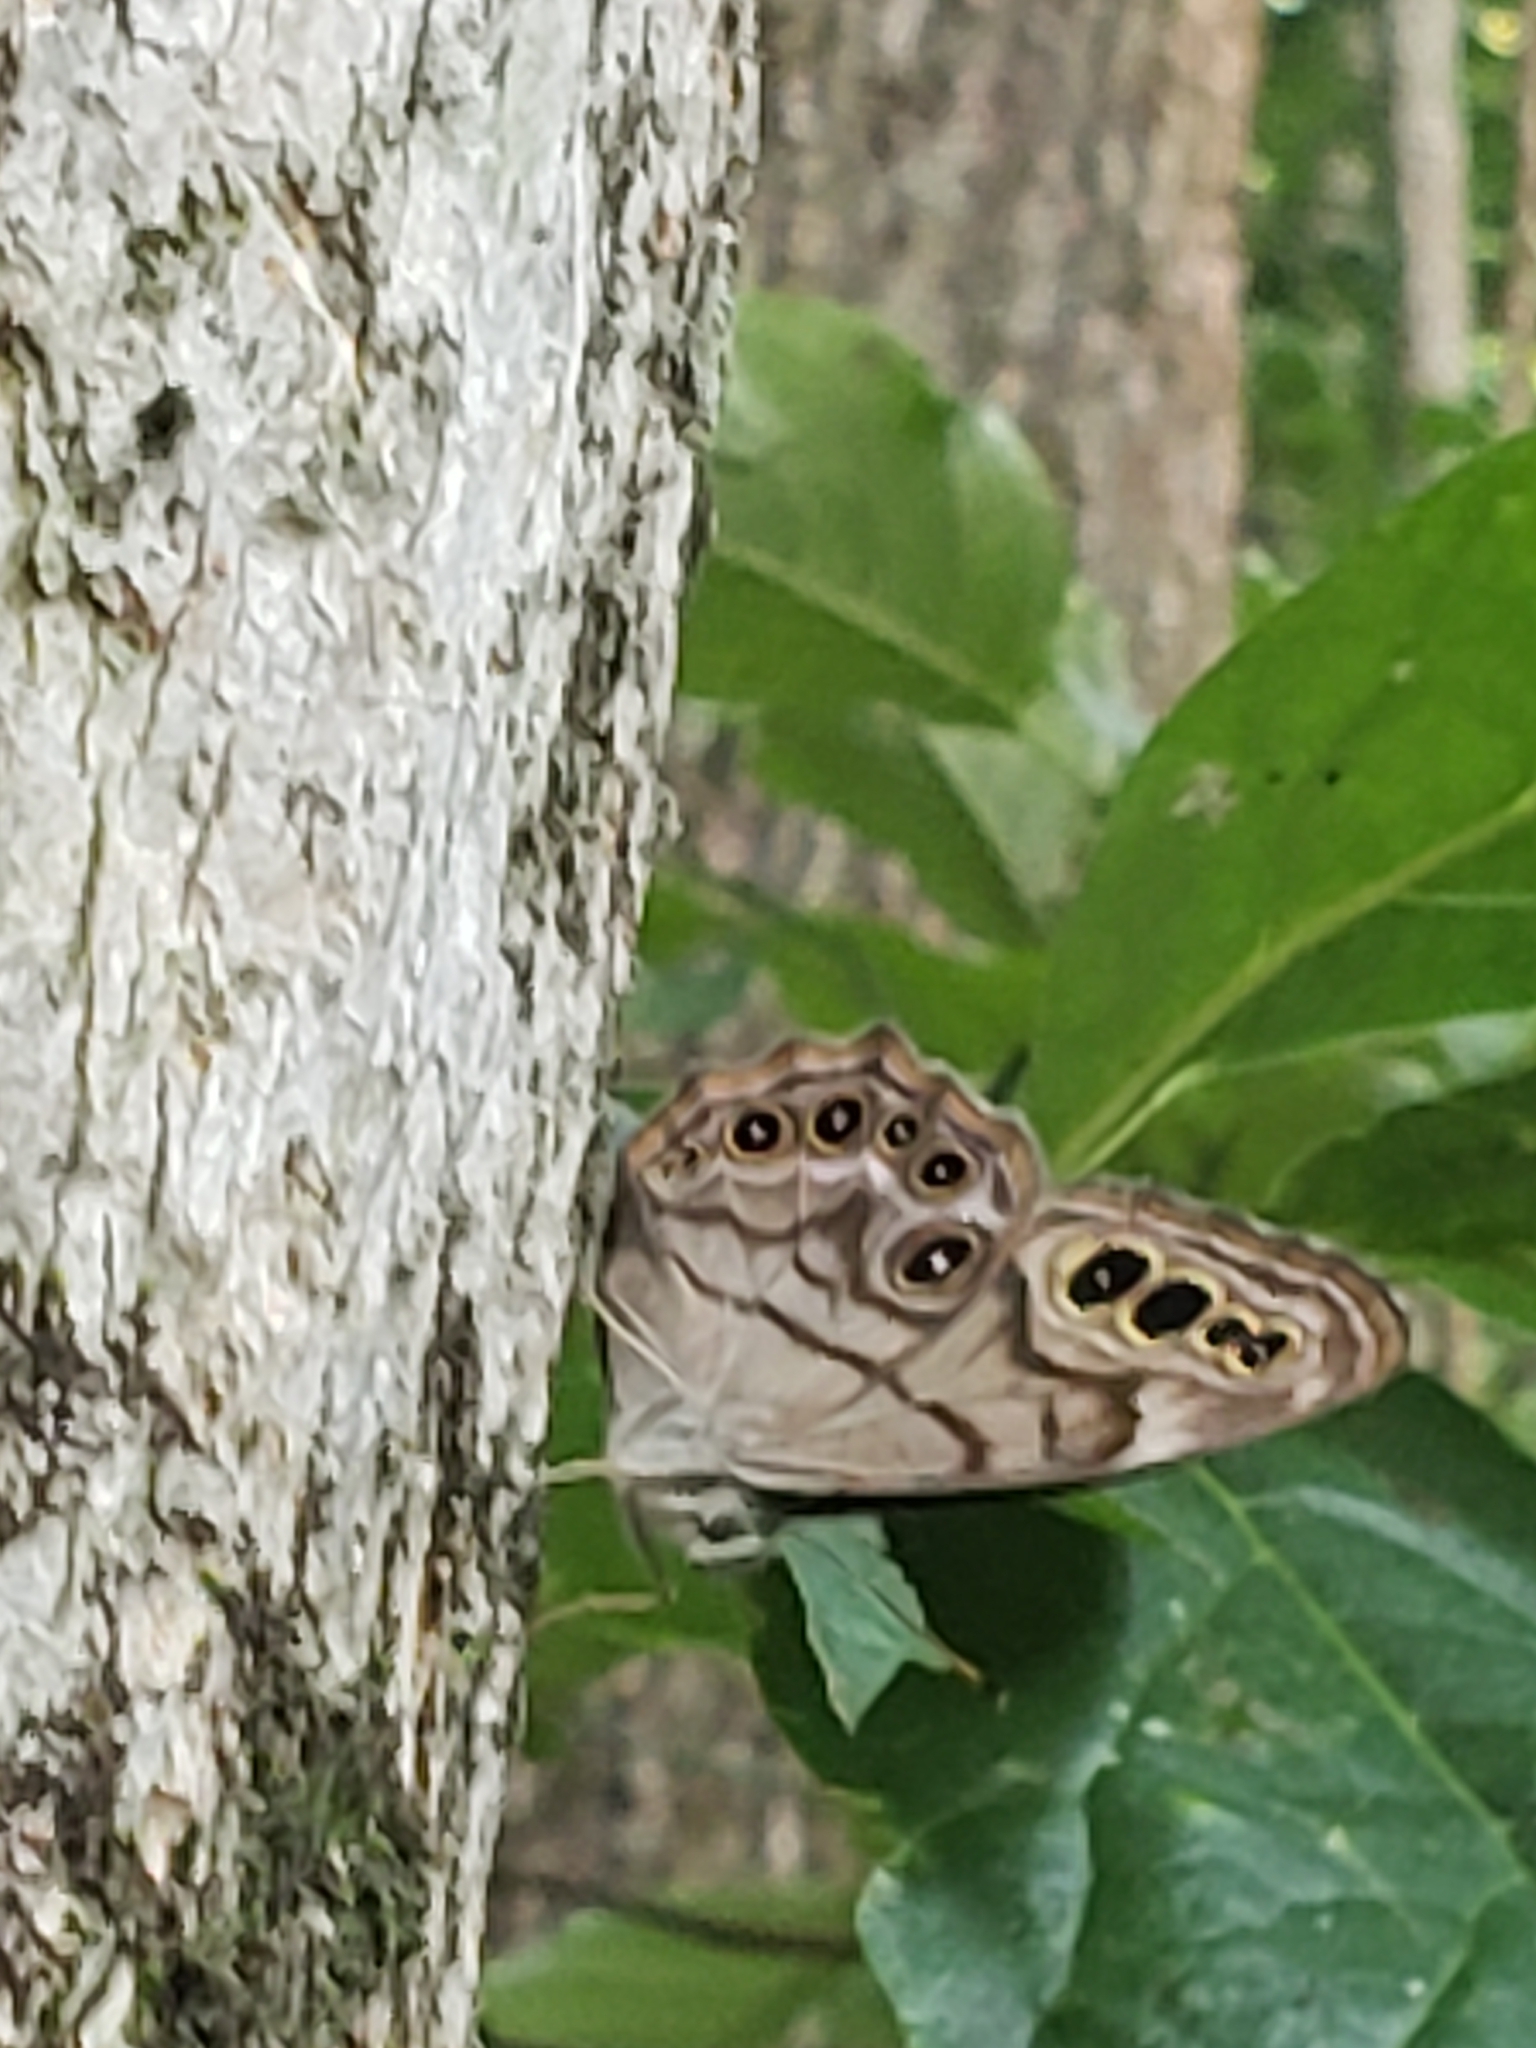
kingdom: Animalia
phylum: Arthropoda
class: Insecta
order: Lepidoptera
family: Nymphalidae
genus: Lethe
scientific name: Lethe anthedon
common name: Northern pearly-eye
